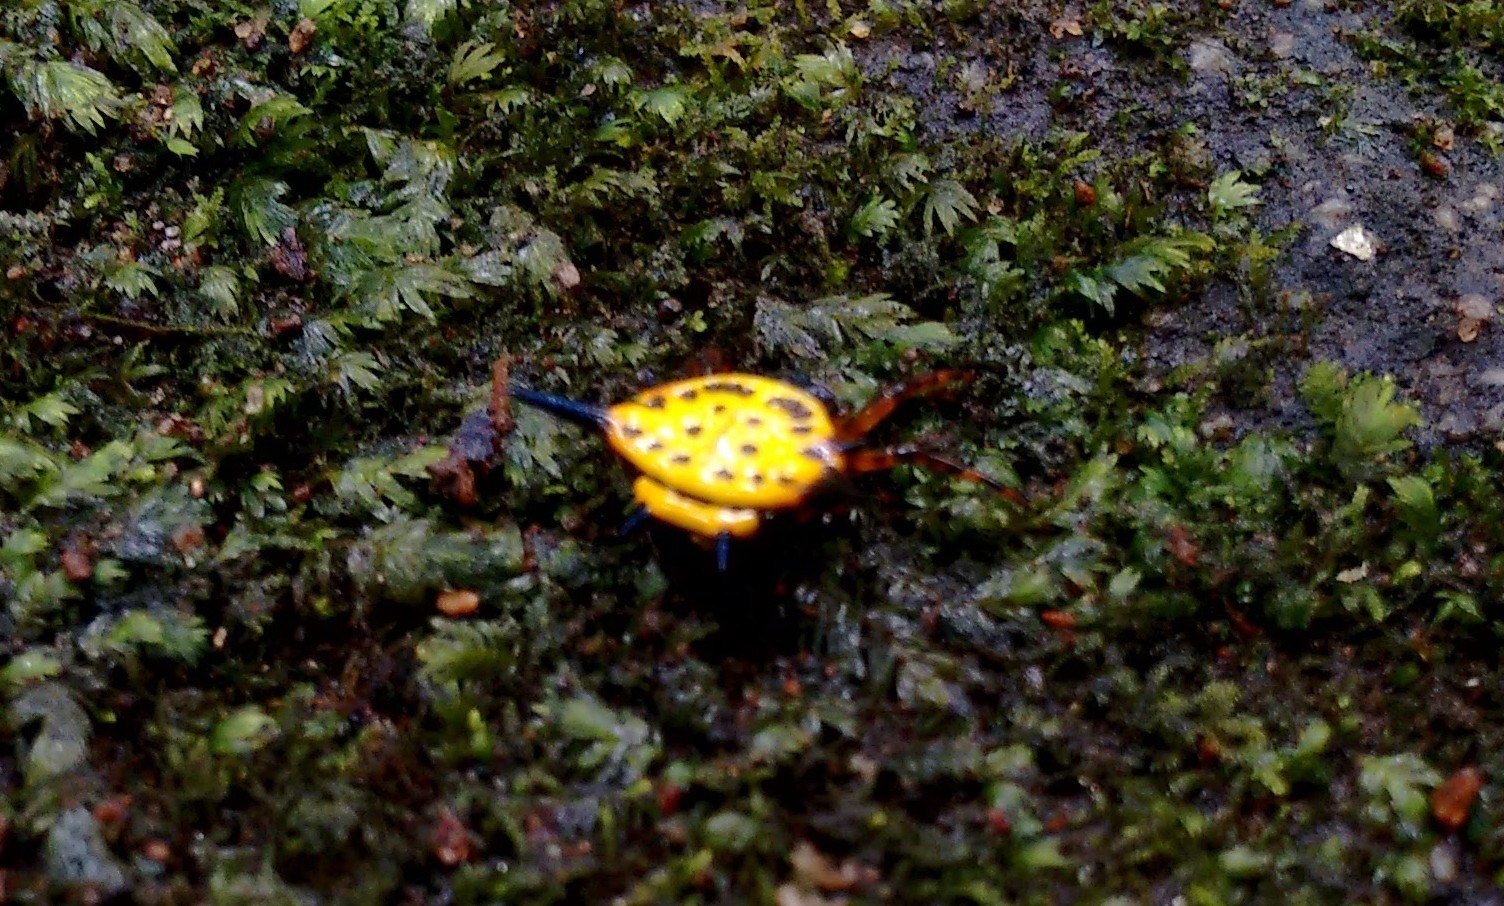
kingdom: Animalia
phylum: Arthropoda
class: Arachnida
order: Araneae
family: Araneidae
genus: Macracantha
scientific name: Macracantha hasselti
